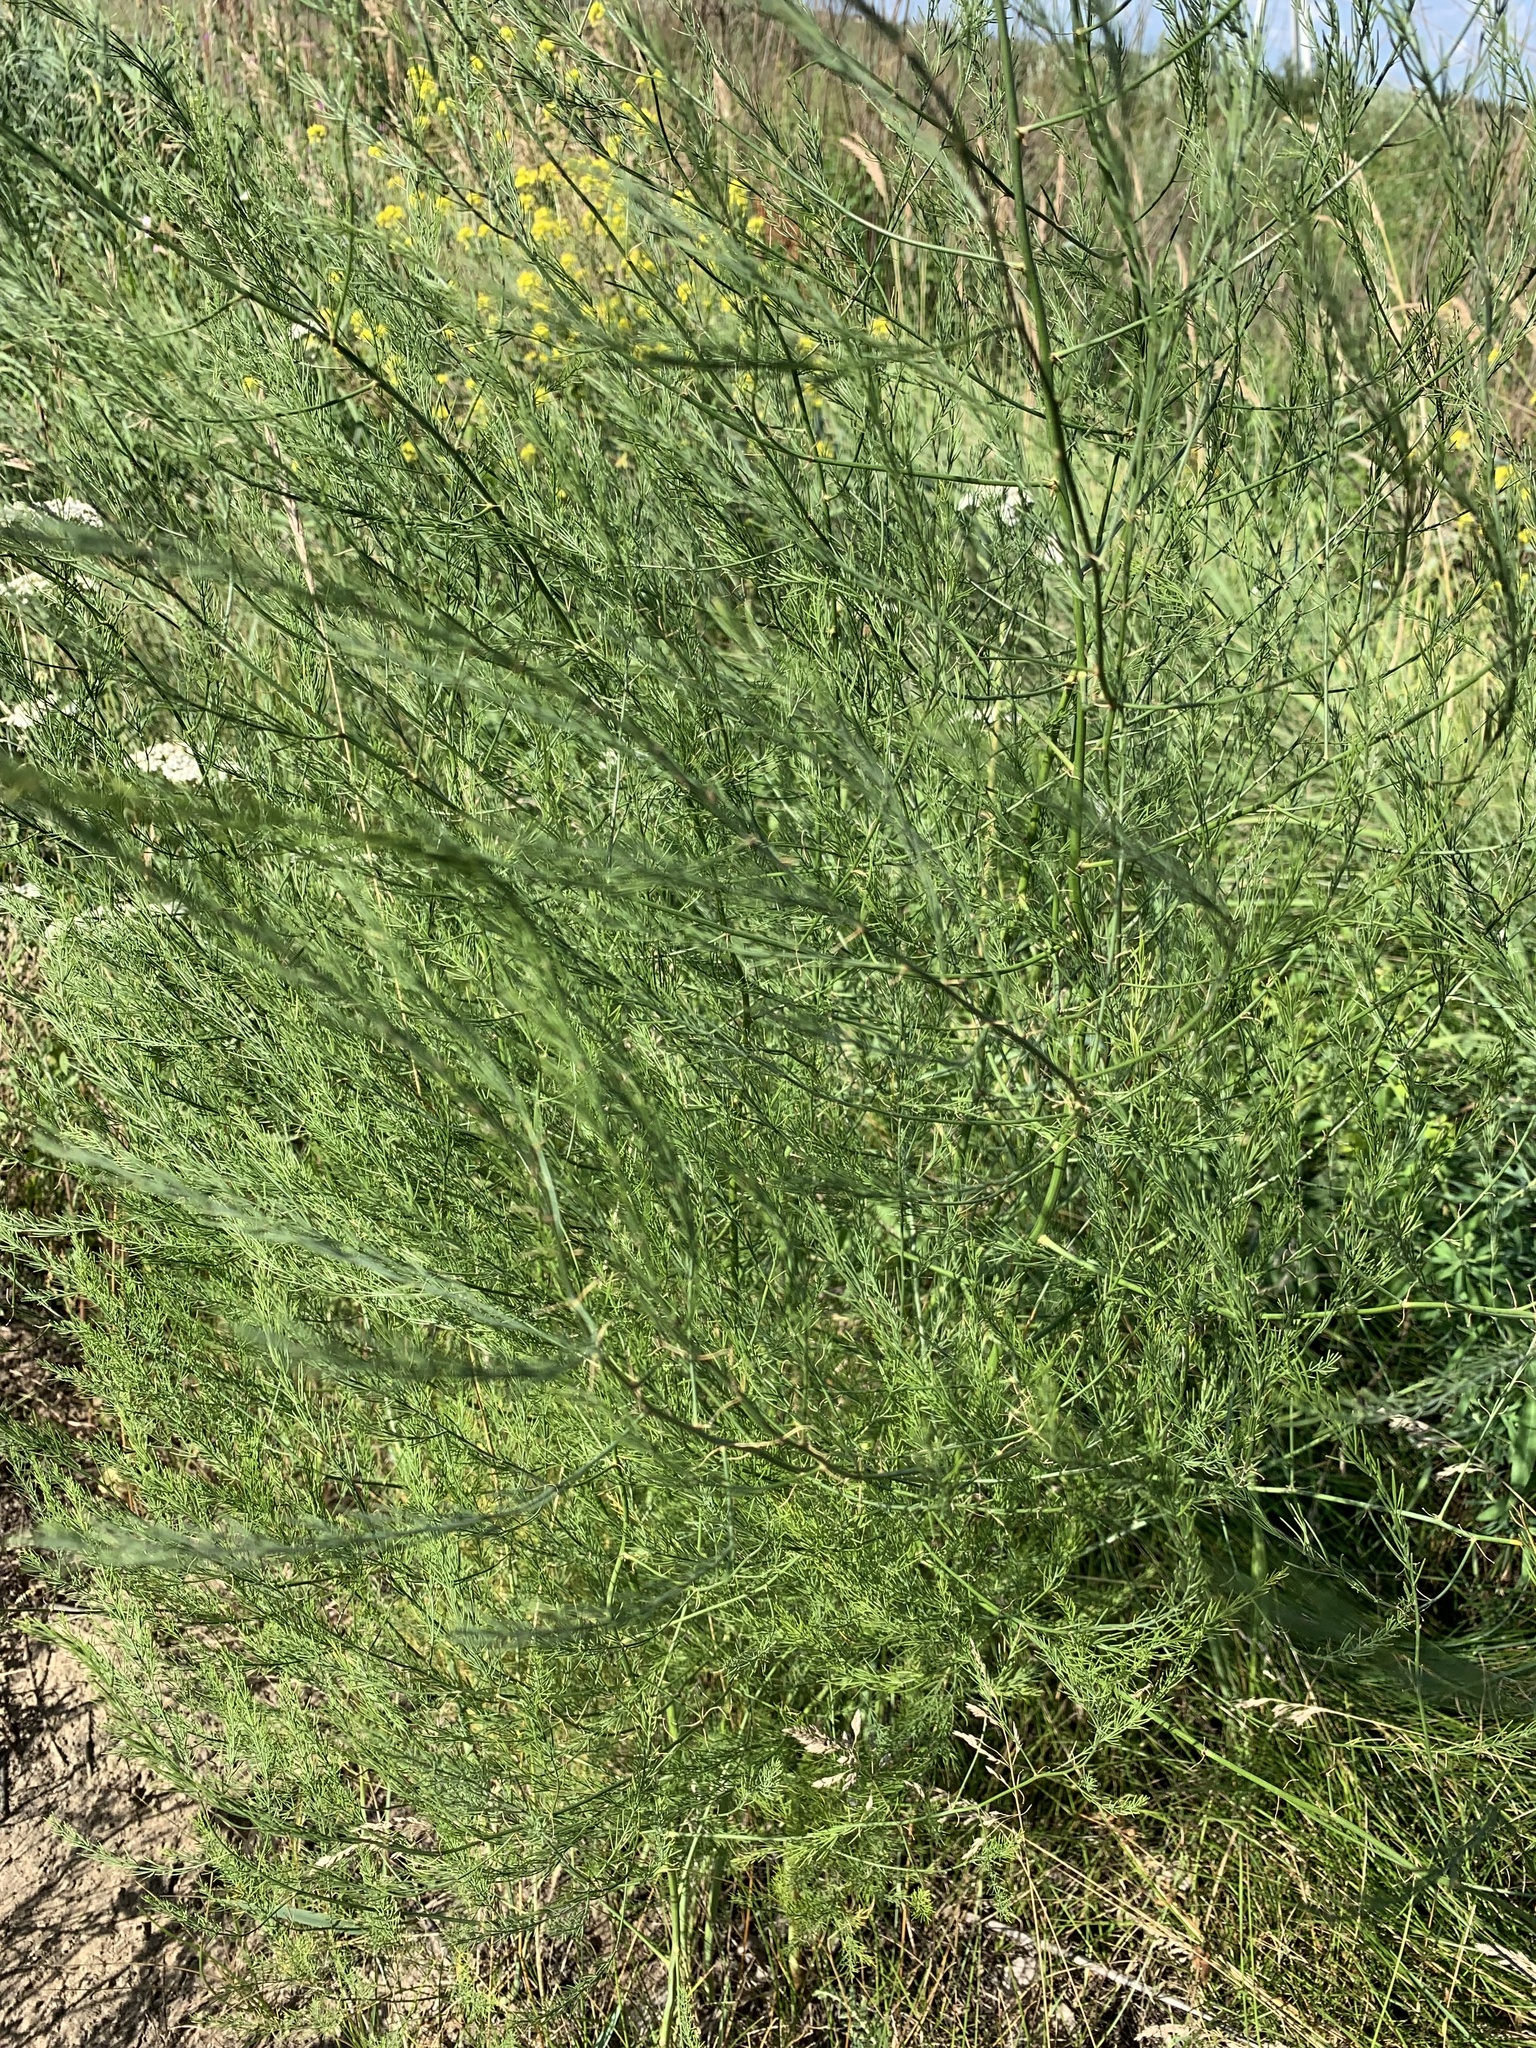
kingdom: Plantae
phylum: Tracheophyta
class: Liliopsida
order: Asparagales
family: Asparagaceae
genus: Asparagus
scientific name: Asparagus officinalis
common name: Garden asparagus
